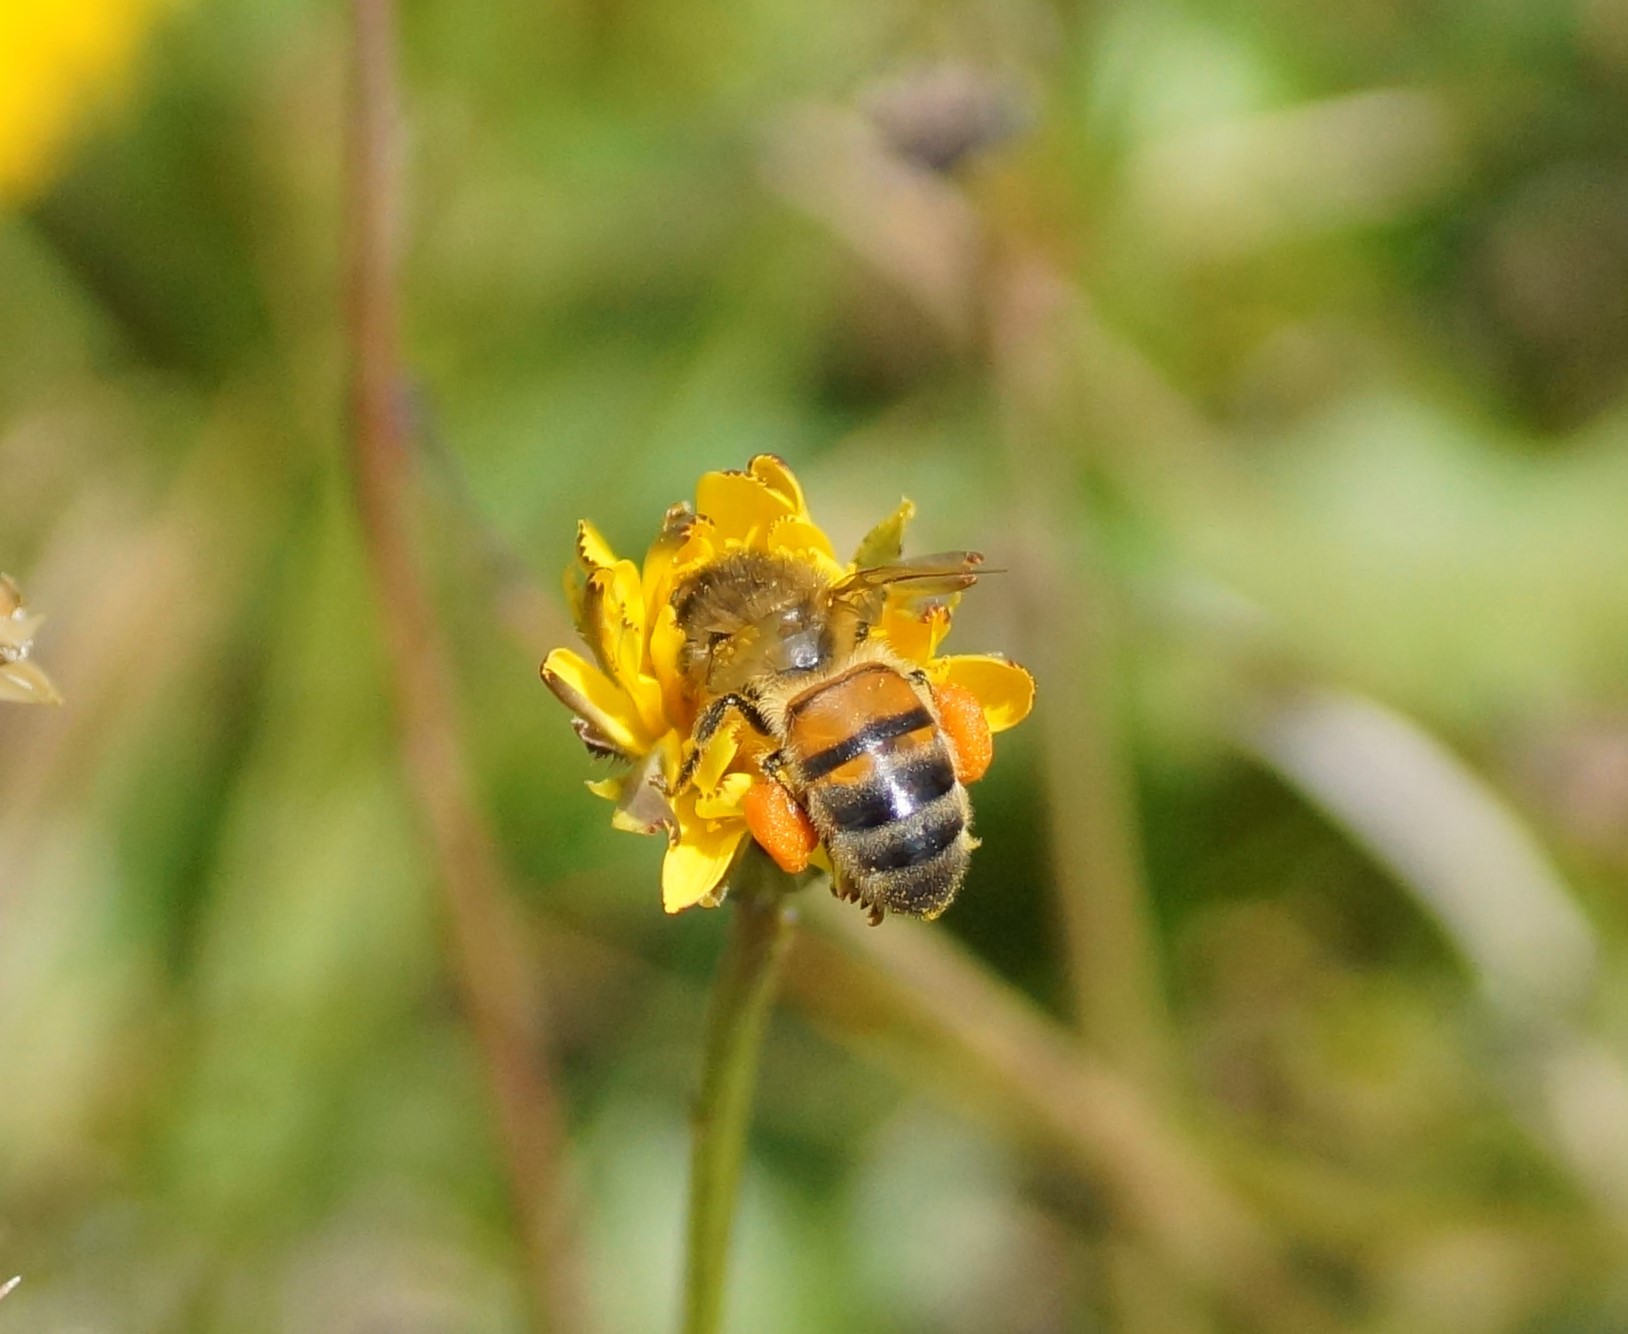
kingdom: Animalia
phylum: Arthropoda
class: Insecta
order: Hymenoptera
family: Apidae
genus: Apis
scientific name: Apis mellifera
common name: Honey bee
